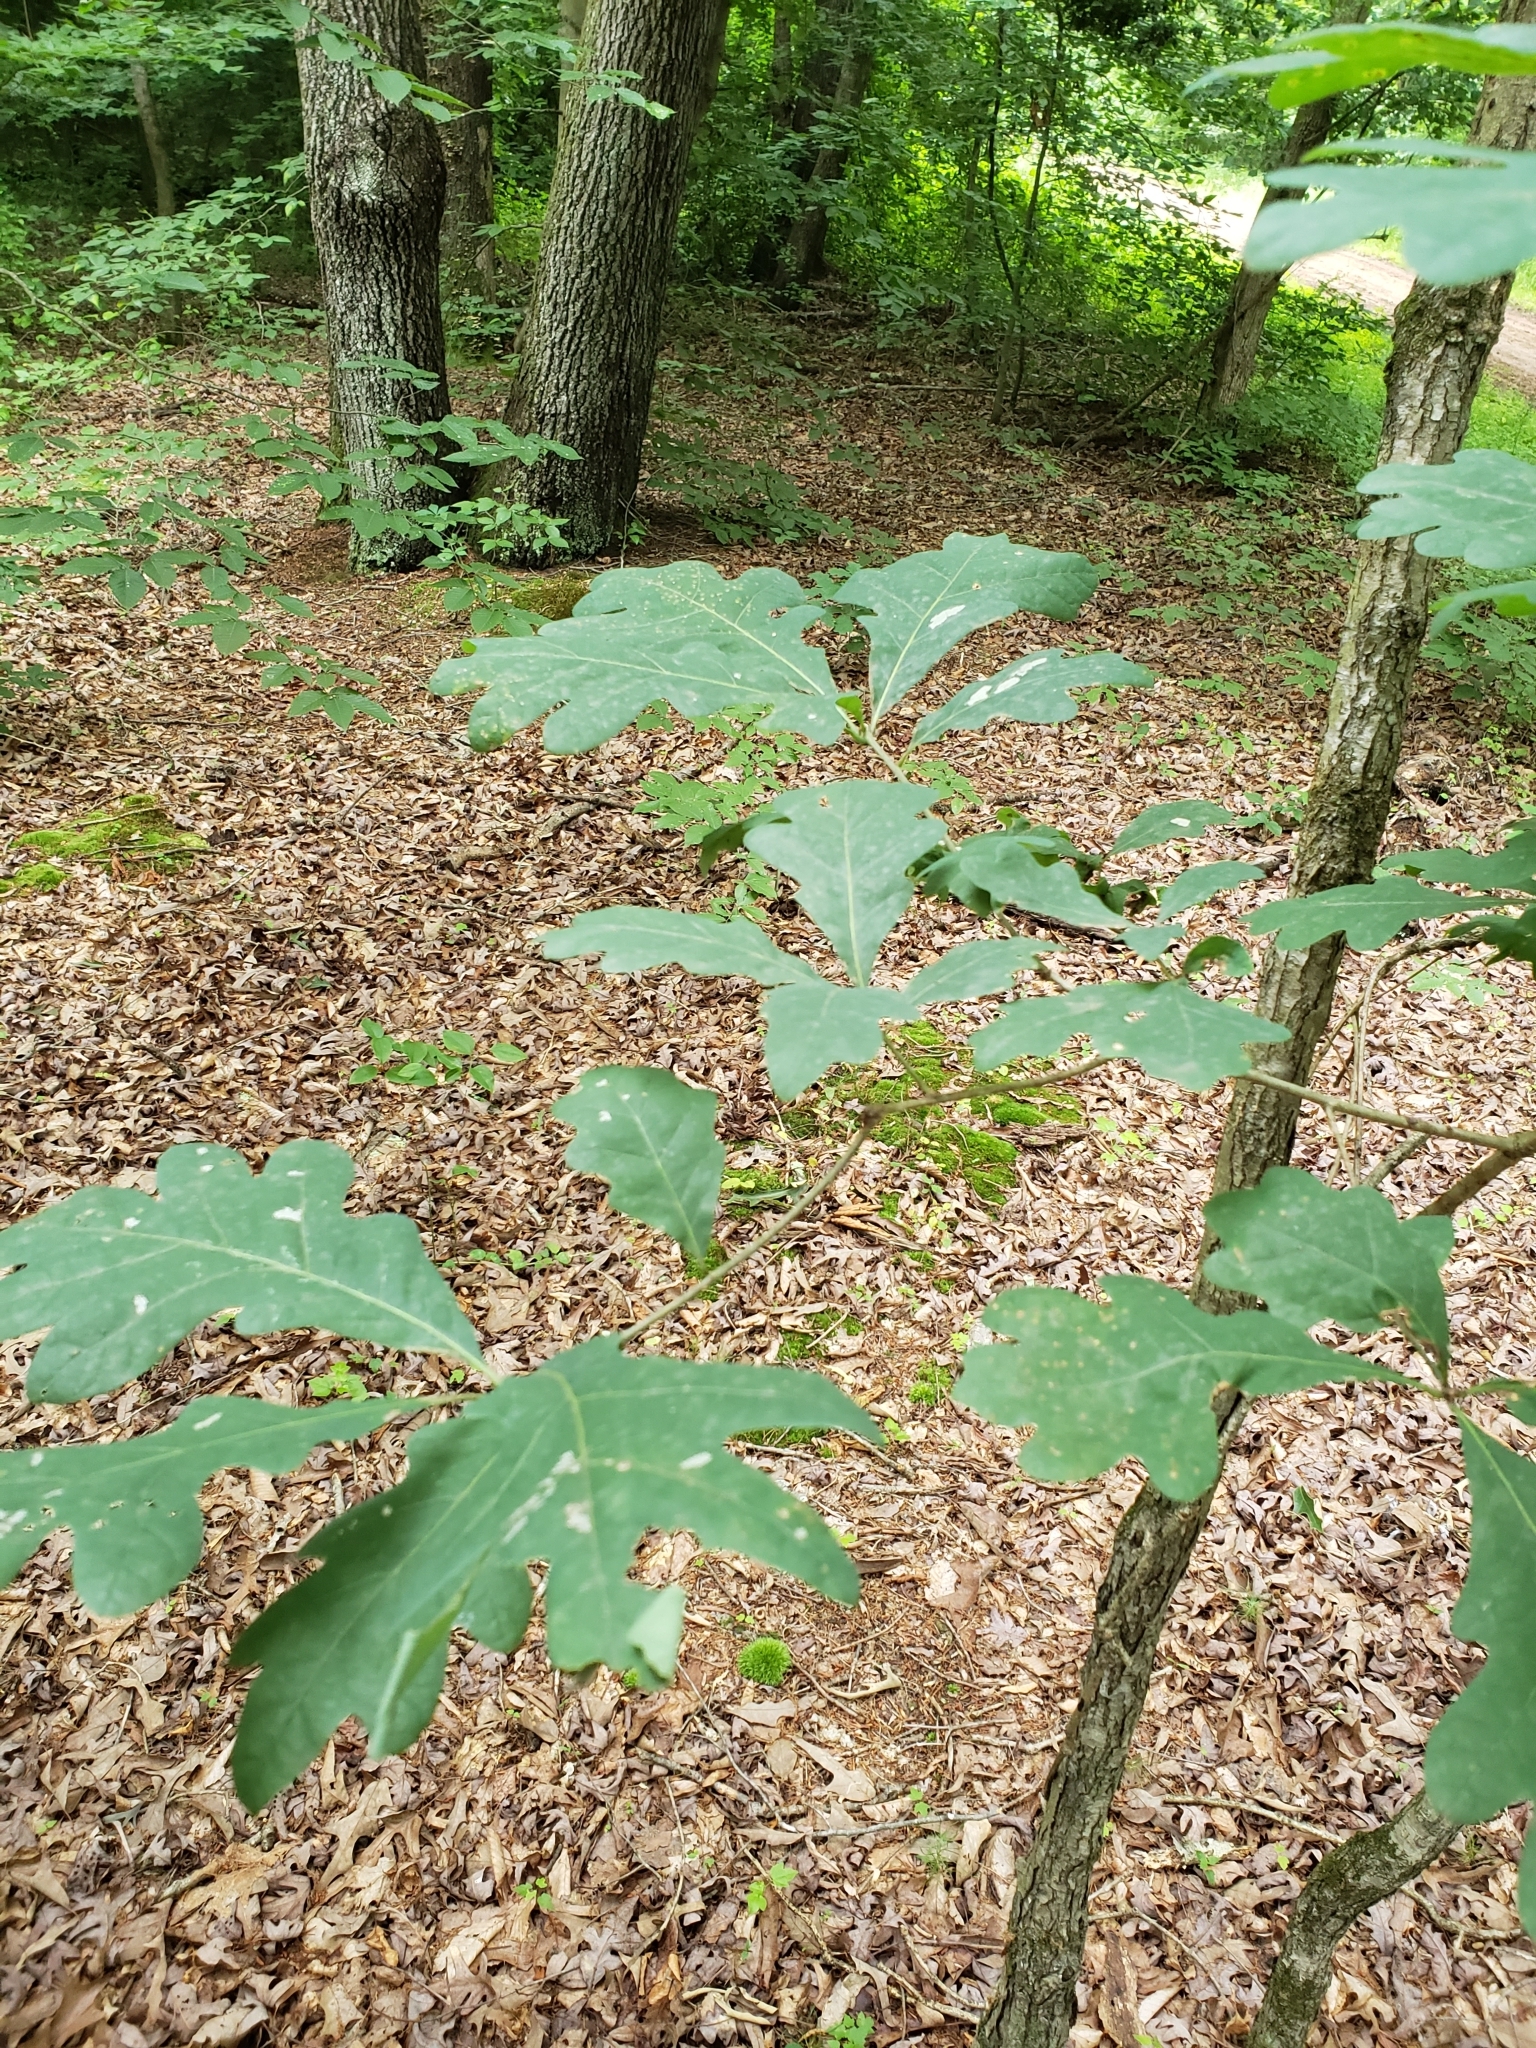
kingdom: Plantae
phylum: Tracheophyta
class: Magnoliopsida
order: Fagales
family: Fagaceae
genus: Quercus
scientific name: Quercus alba
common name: White oak
